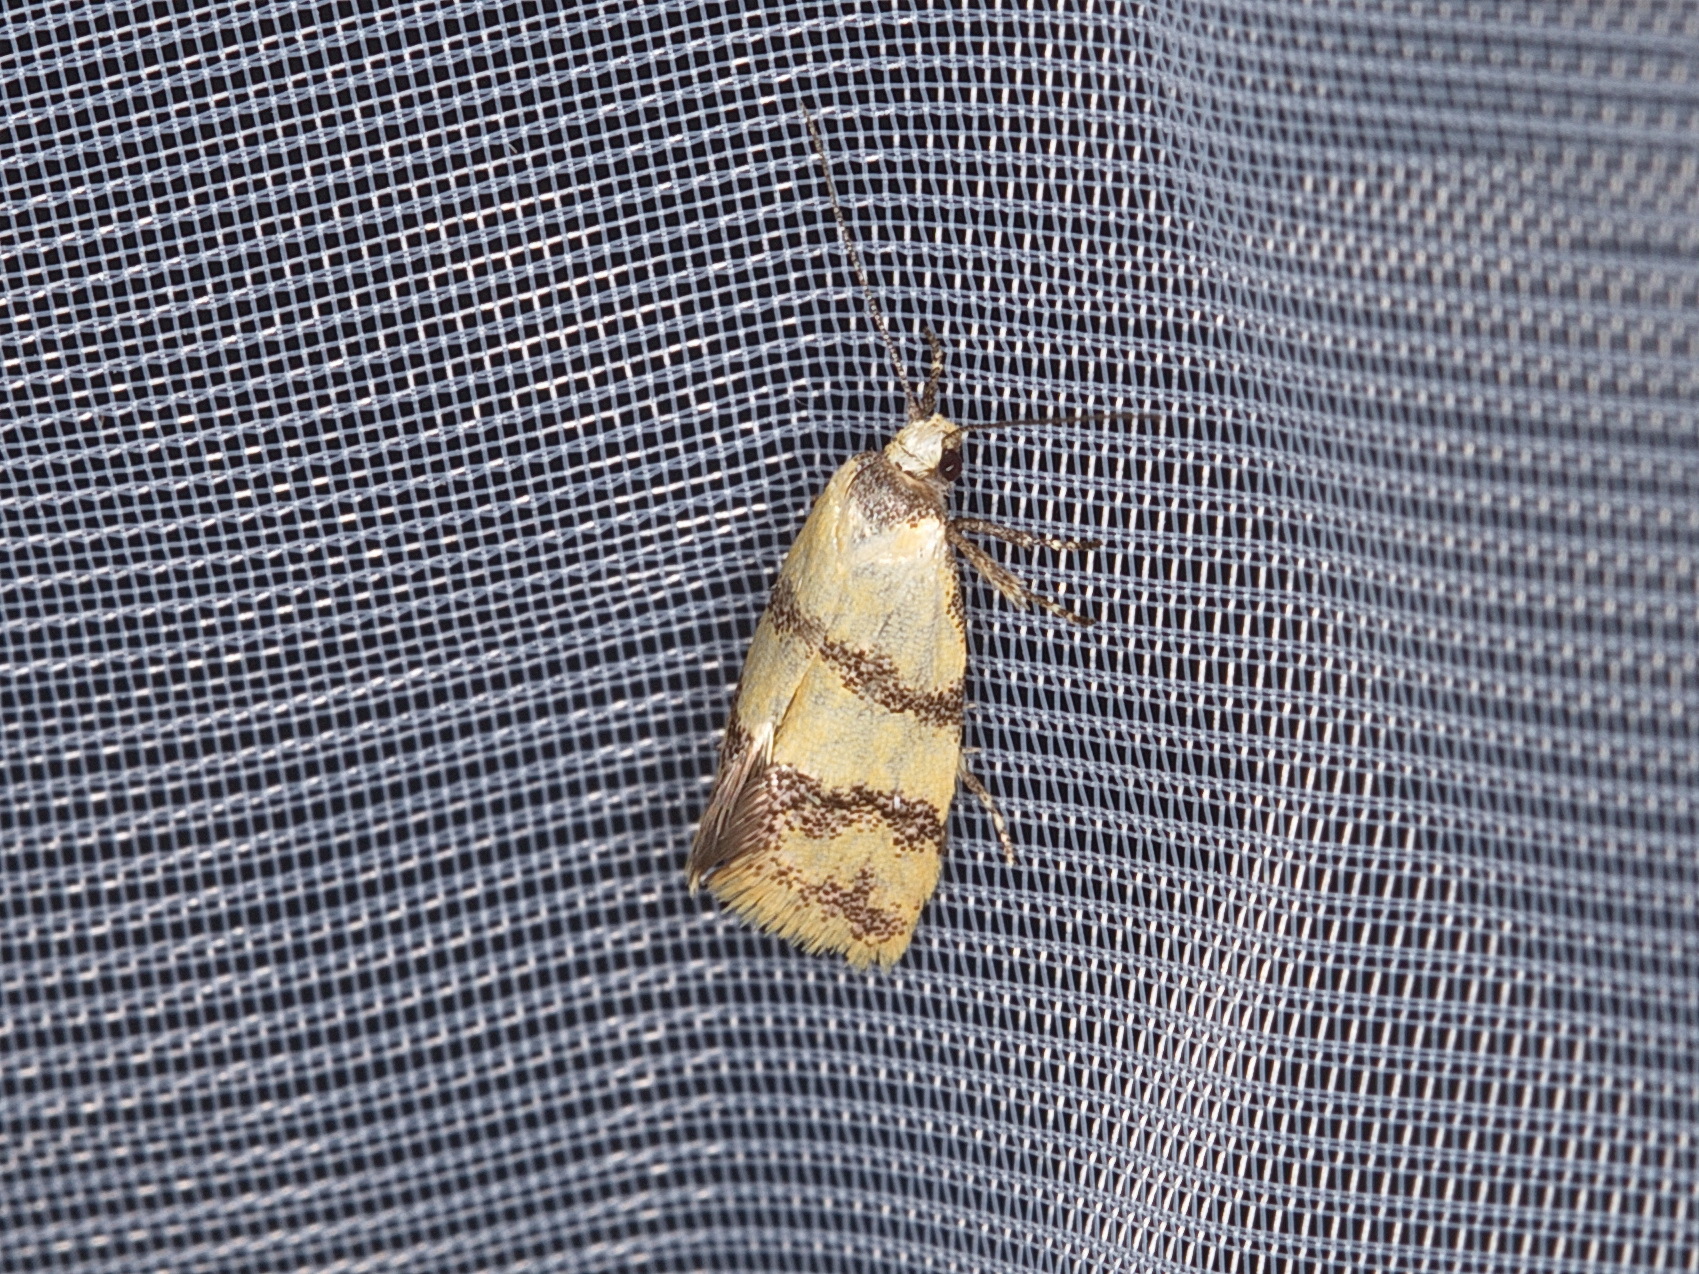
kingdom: Animalia
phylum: Arthropoda
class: Insecta
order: Lepidoptera
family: Oecophoridae
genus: Psaroxantha
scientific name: Psaroxantha basilica
